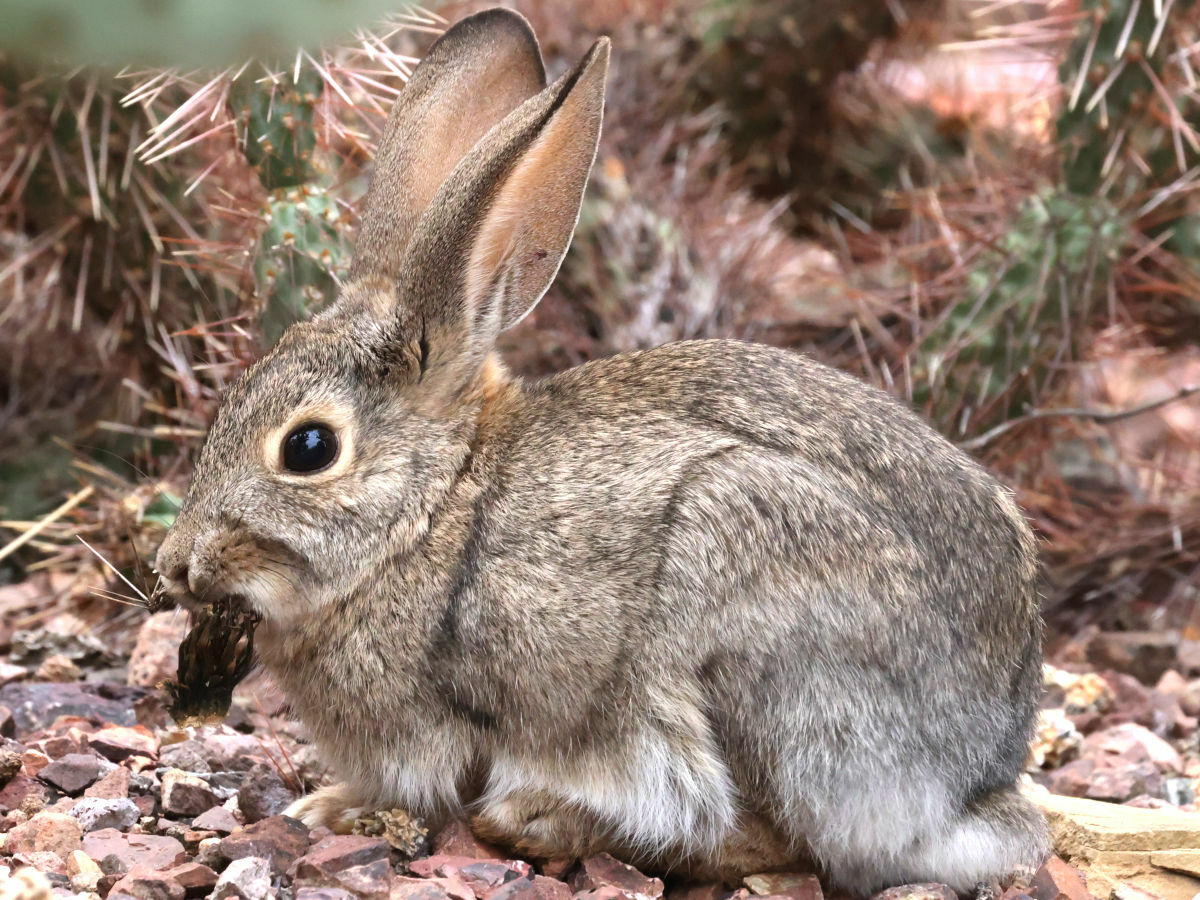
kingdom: Animalia
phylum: Chordata
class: Mammalia
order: Lagomorpha
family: Leporidae
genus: Sylvilagus
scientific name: Sylvilagus audubonii
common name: Desert cottontail
